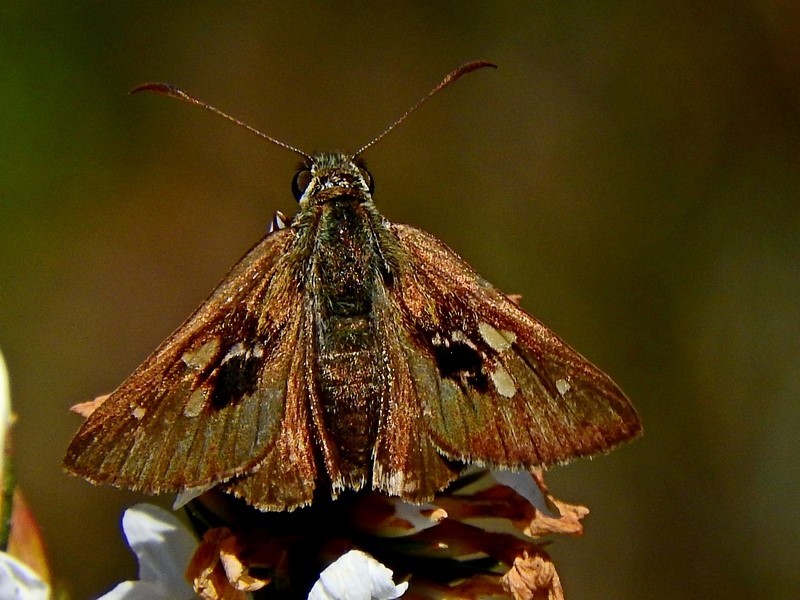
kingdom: Animalia
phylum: Arthropoda
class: Insecta
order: Lepidoptera
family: Hesperiidae
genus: Toxidia
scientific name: Toxidia
